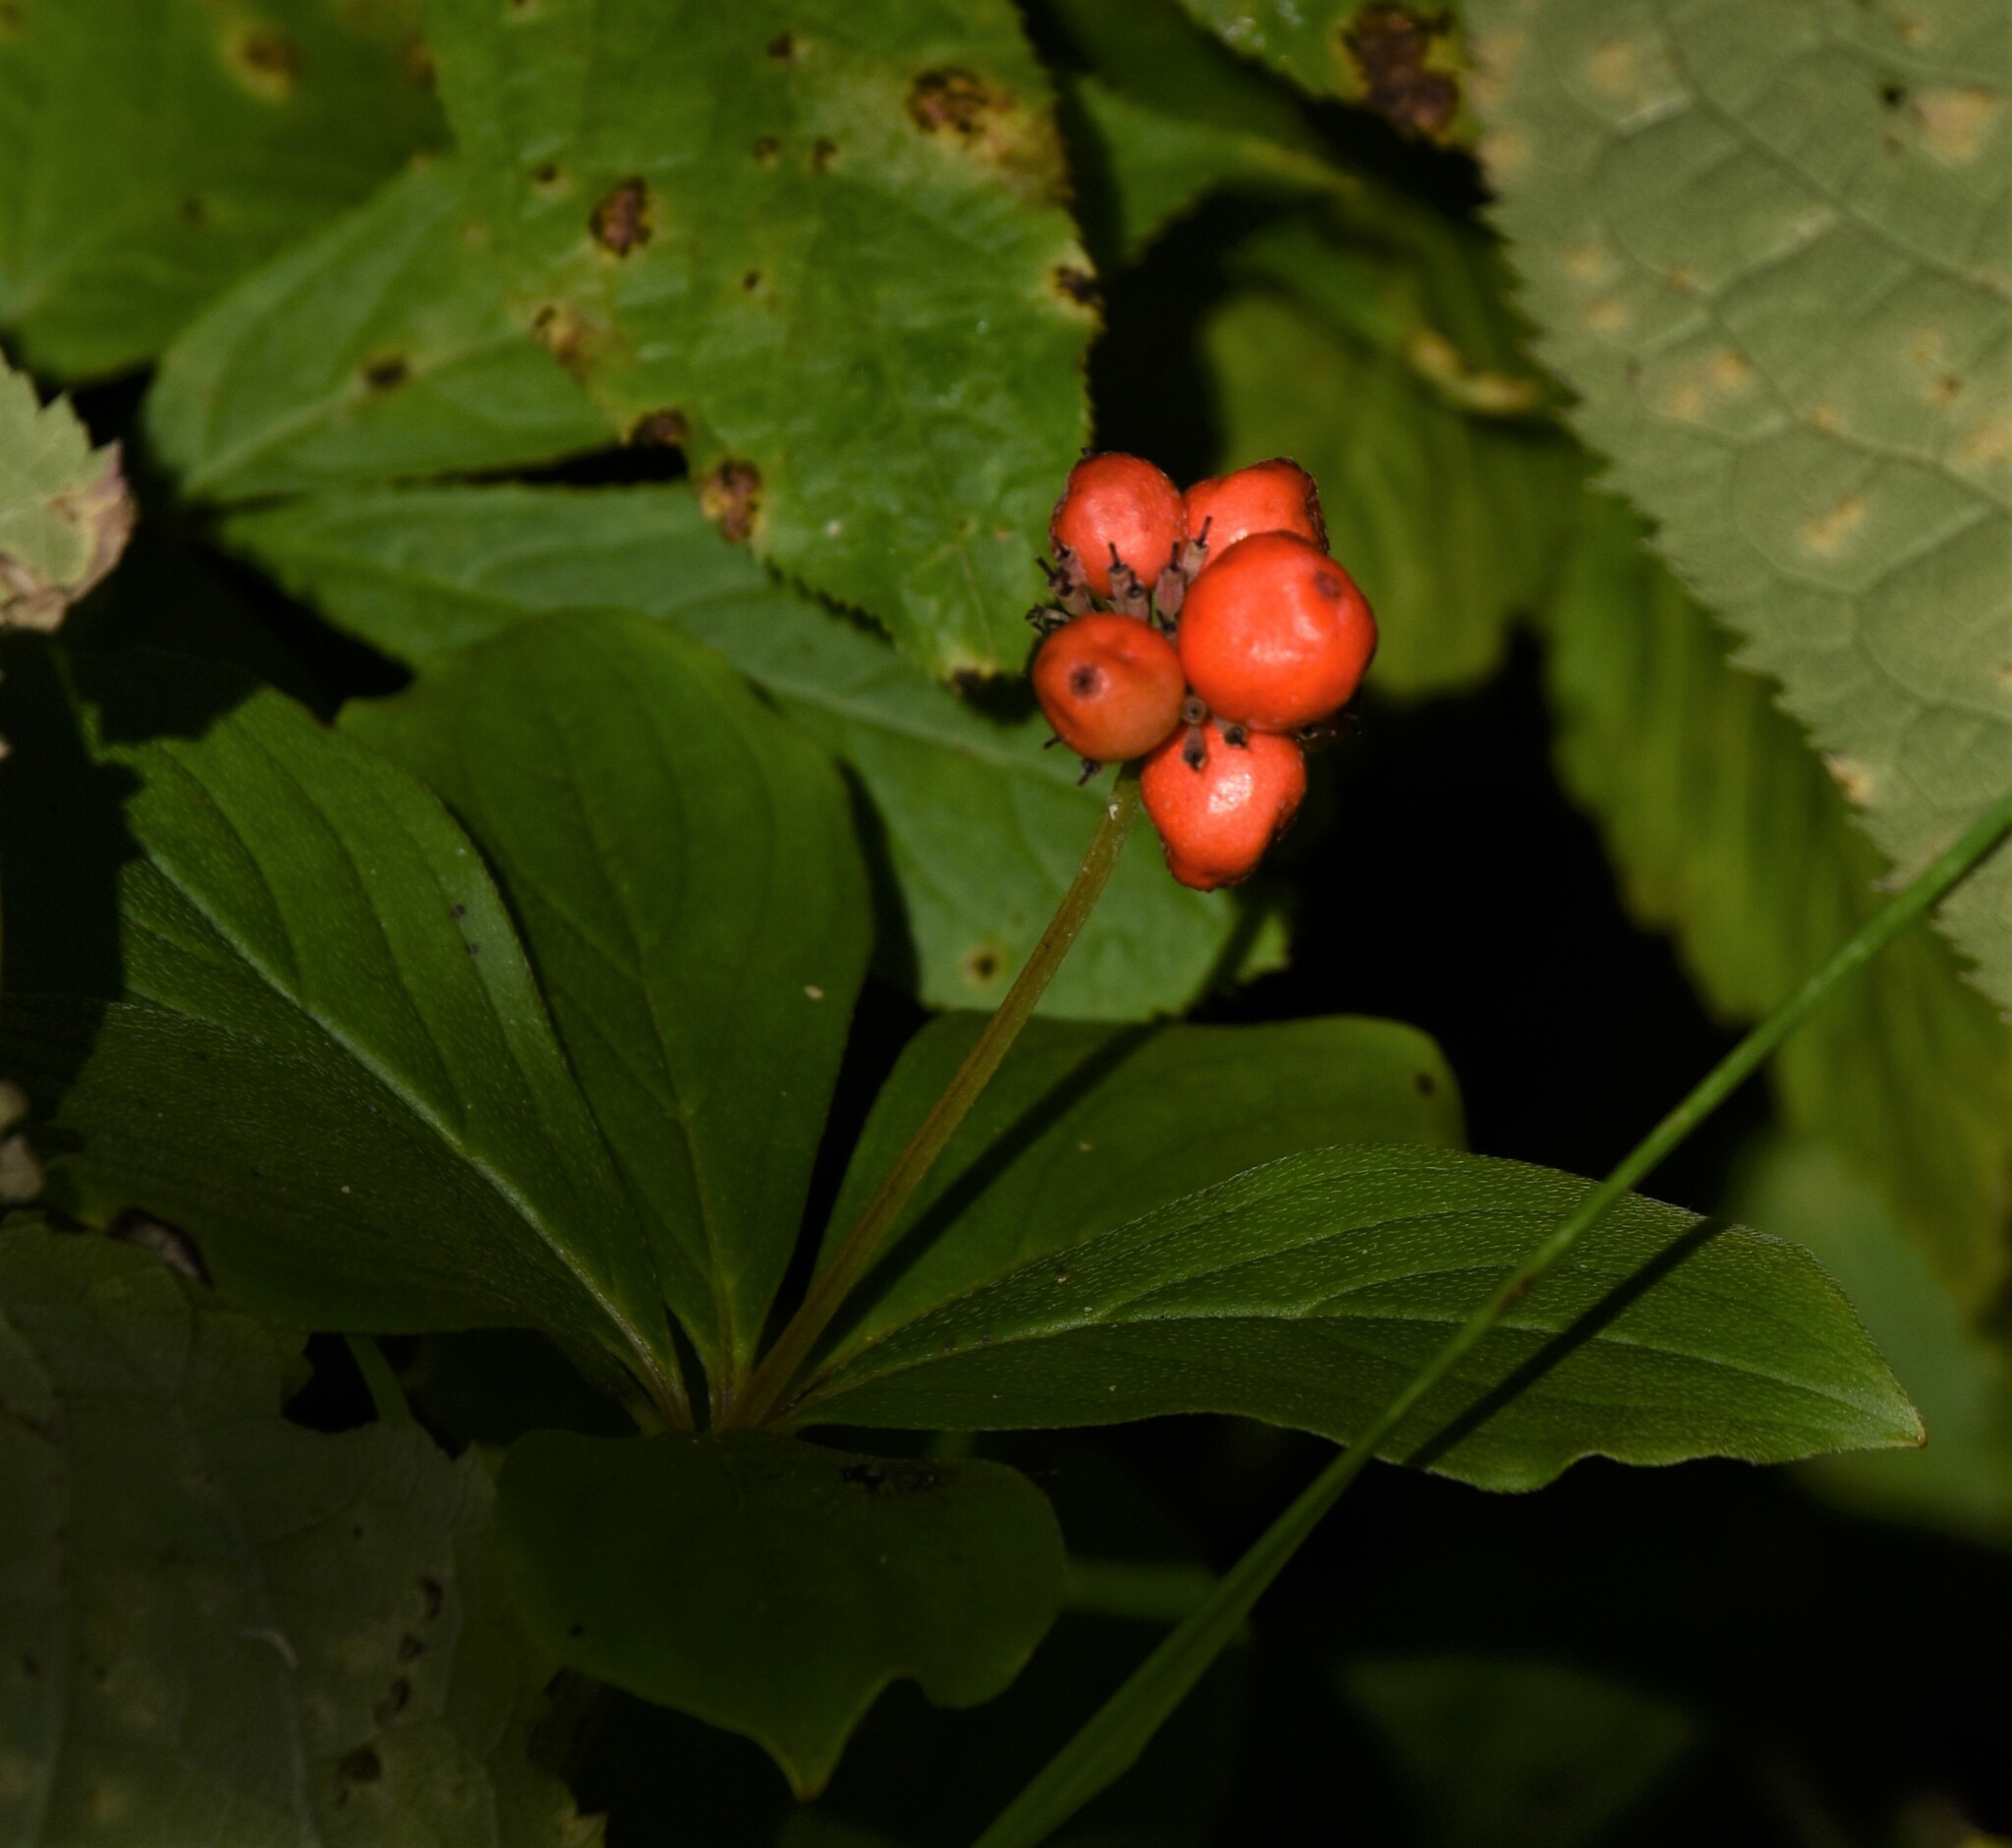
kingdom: Plantae
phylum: Tracheophyta
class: Magnoliopsida
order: Cornales
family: Cornaceae
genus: Cornus
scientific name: Cornus canadensis
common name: Creeping dogwood
